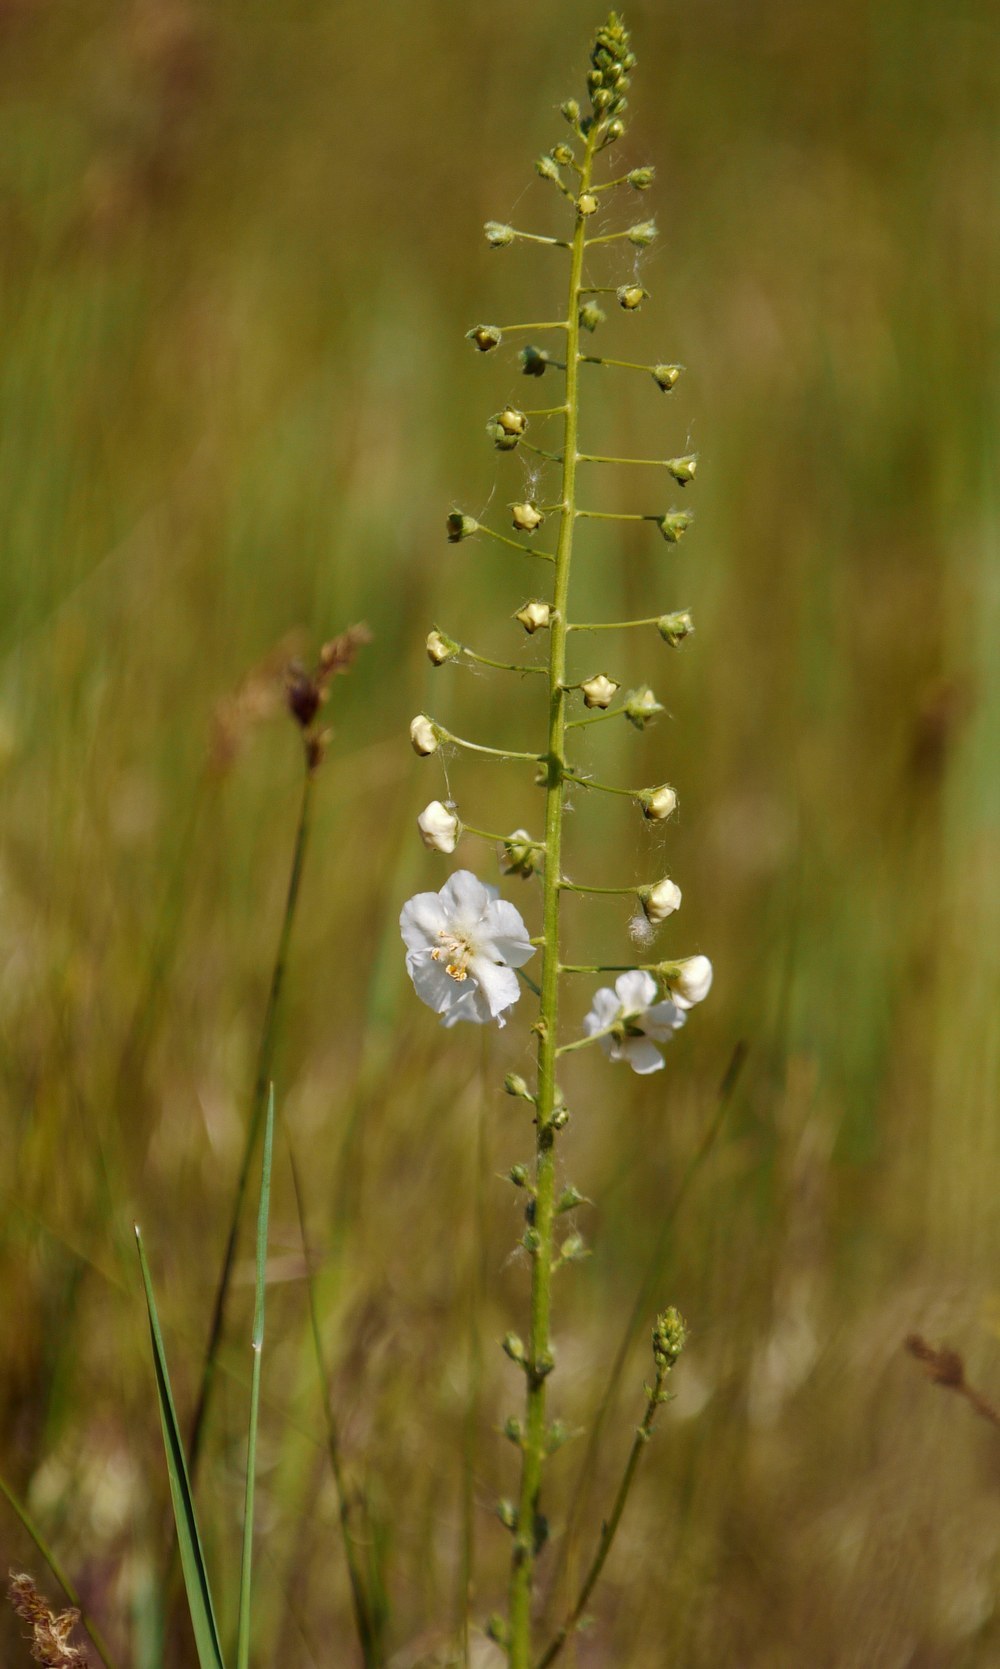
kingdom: Plantae
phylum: Tracheophyta
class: Magnoliopsida
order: Lamiales
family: Scrophulariaceae
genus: Verbascum
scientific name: Verbascum phoeniceum
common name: Purple mullein
